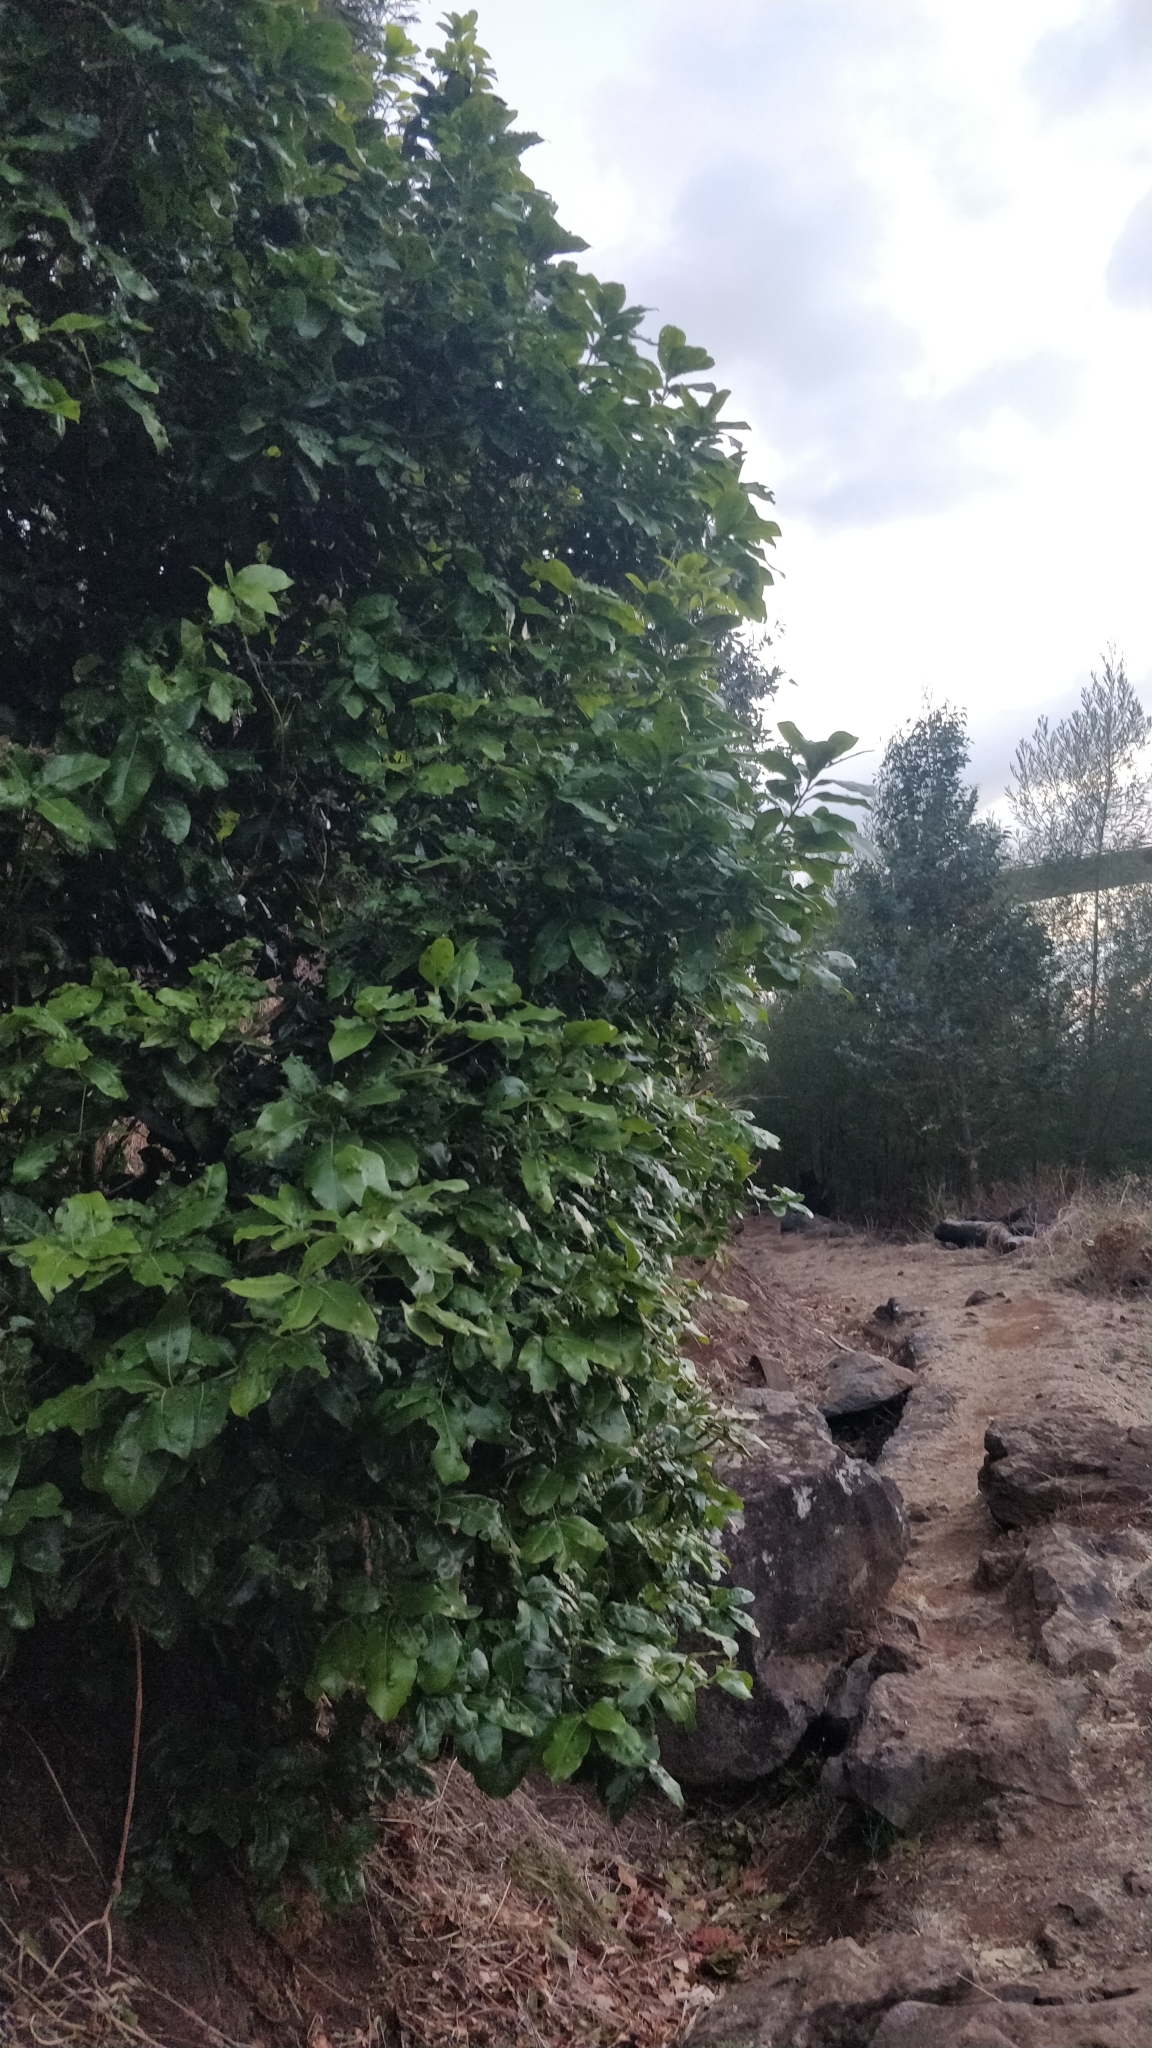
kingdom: Plantae
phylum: Tracheophyta
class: Magnoliopsida
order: Laurales
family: Lauraceae
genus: Apollonias
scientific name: Apollonias barbujana
